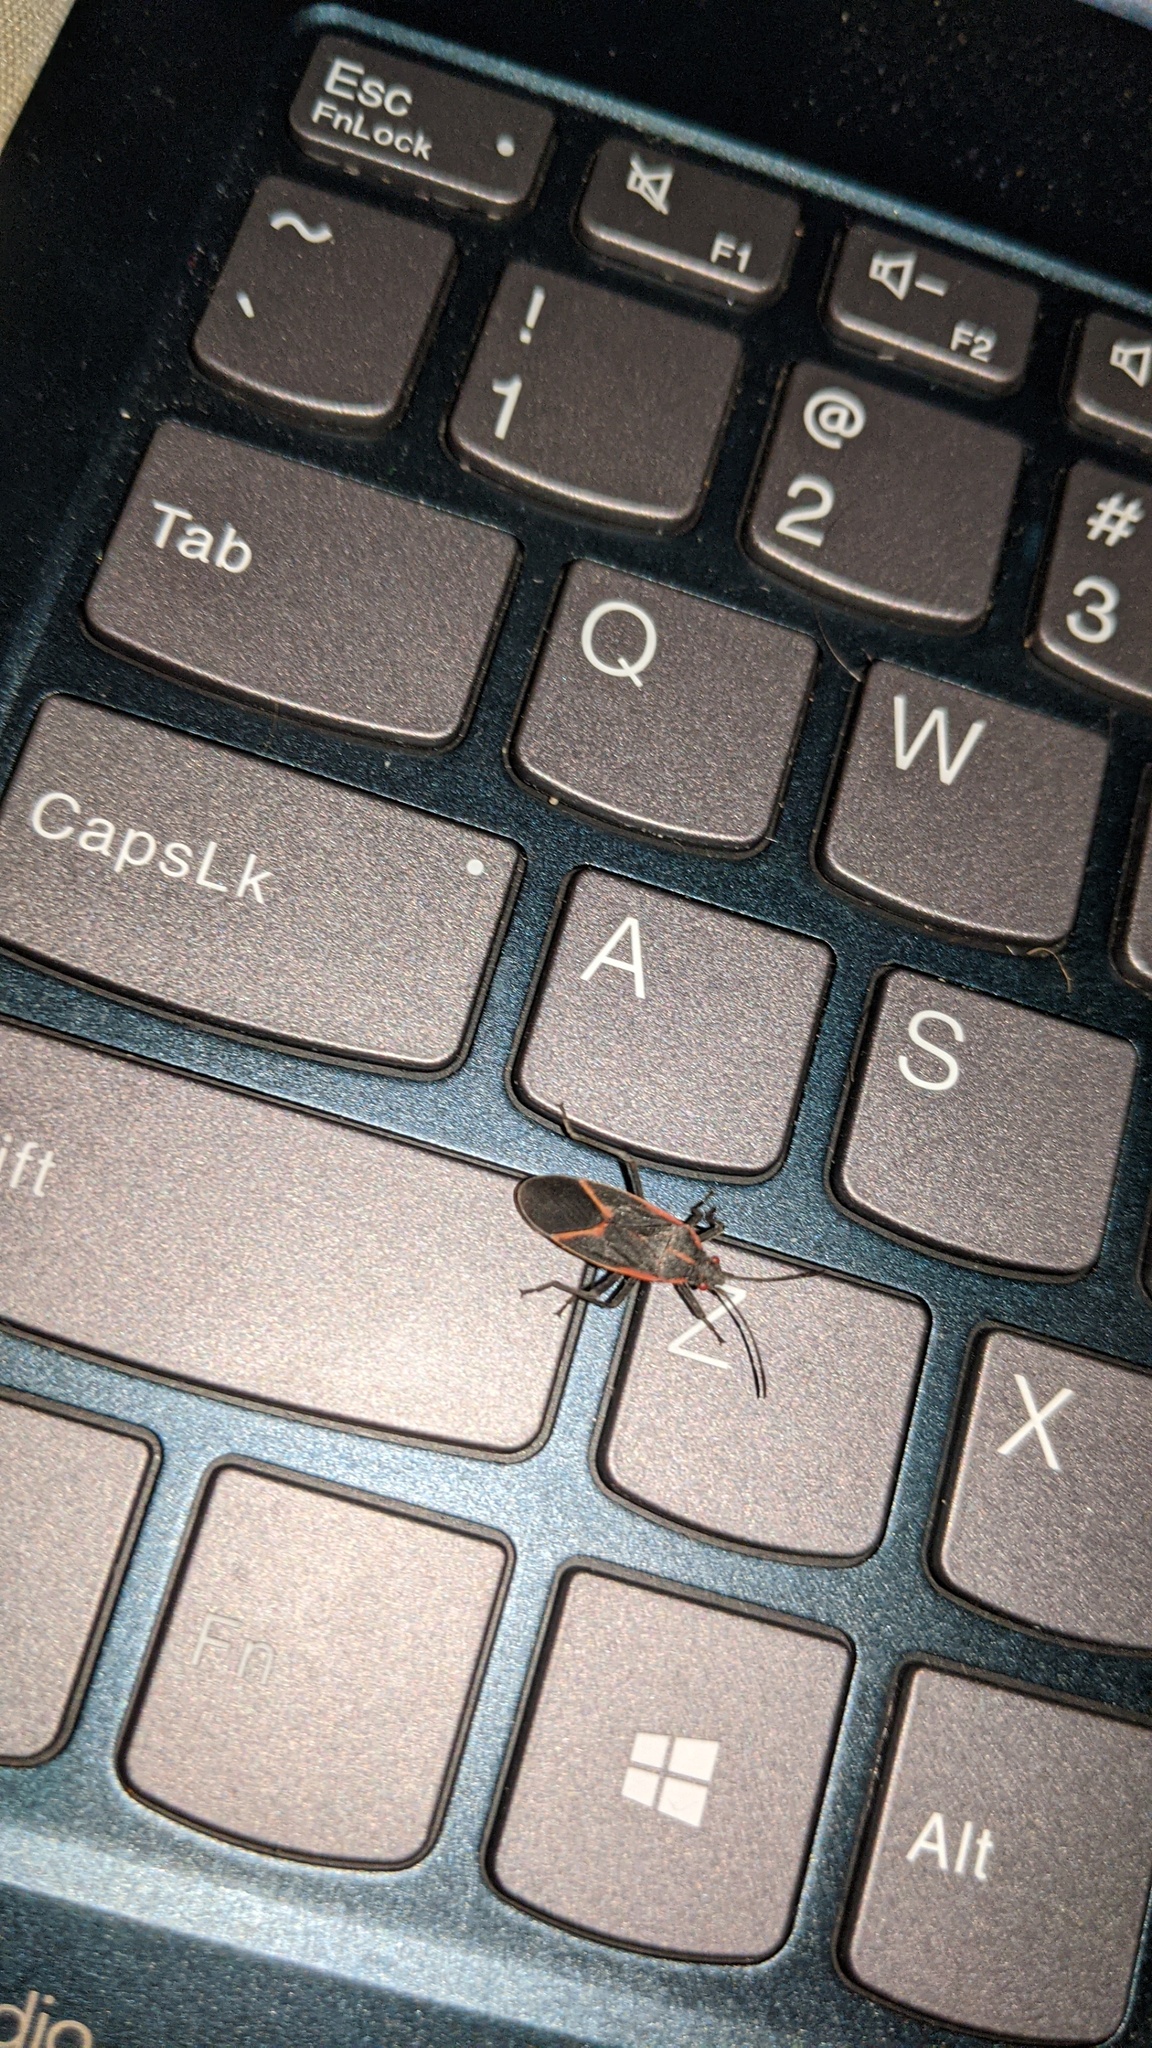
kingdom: Animalia
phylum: Arthropoda
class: Insecta
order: Hemiptera
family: Rhopalidae
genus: Boisea
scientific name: Boisea trivittata
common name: Boxelder bug
